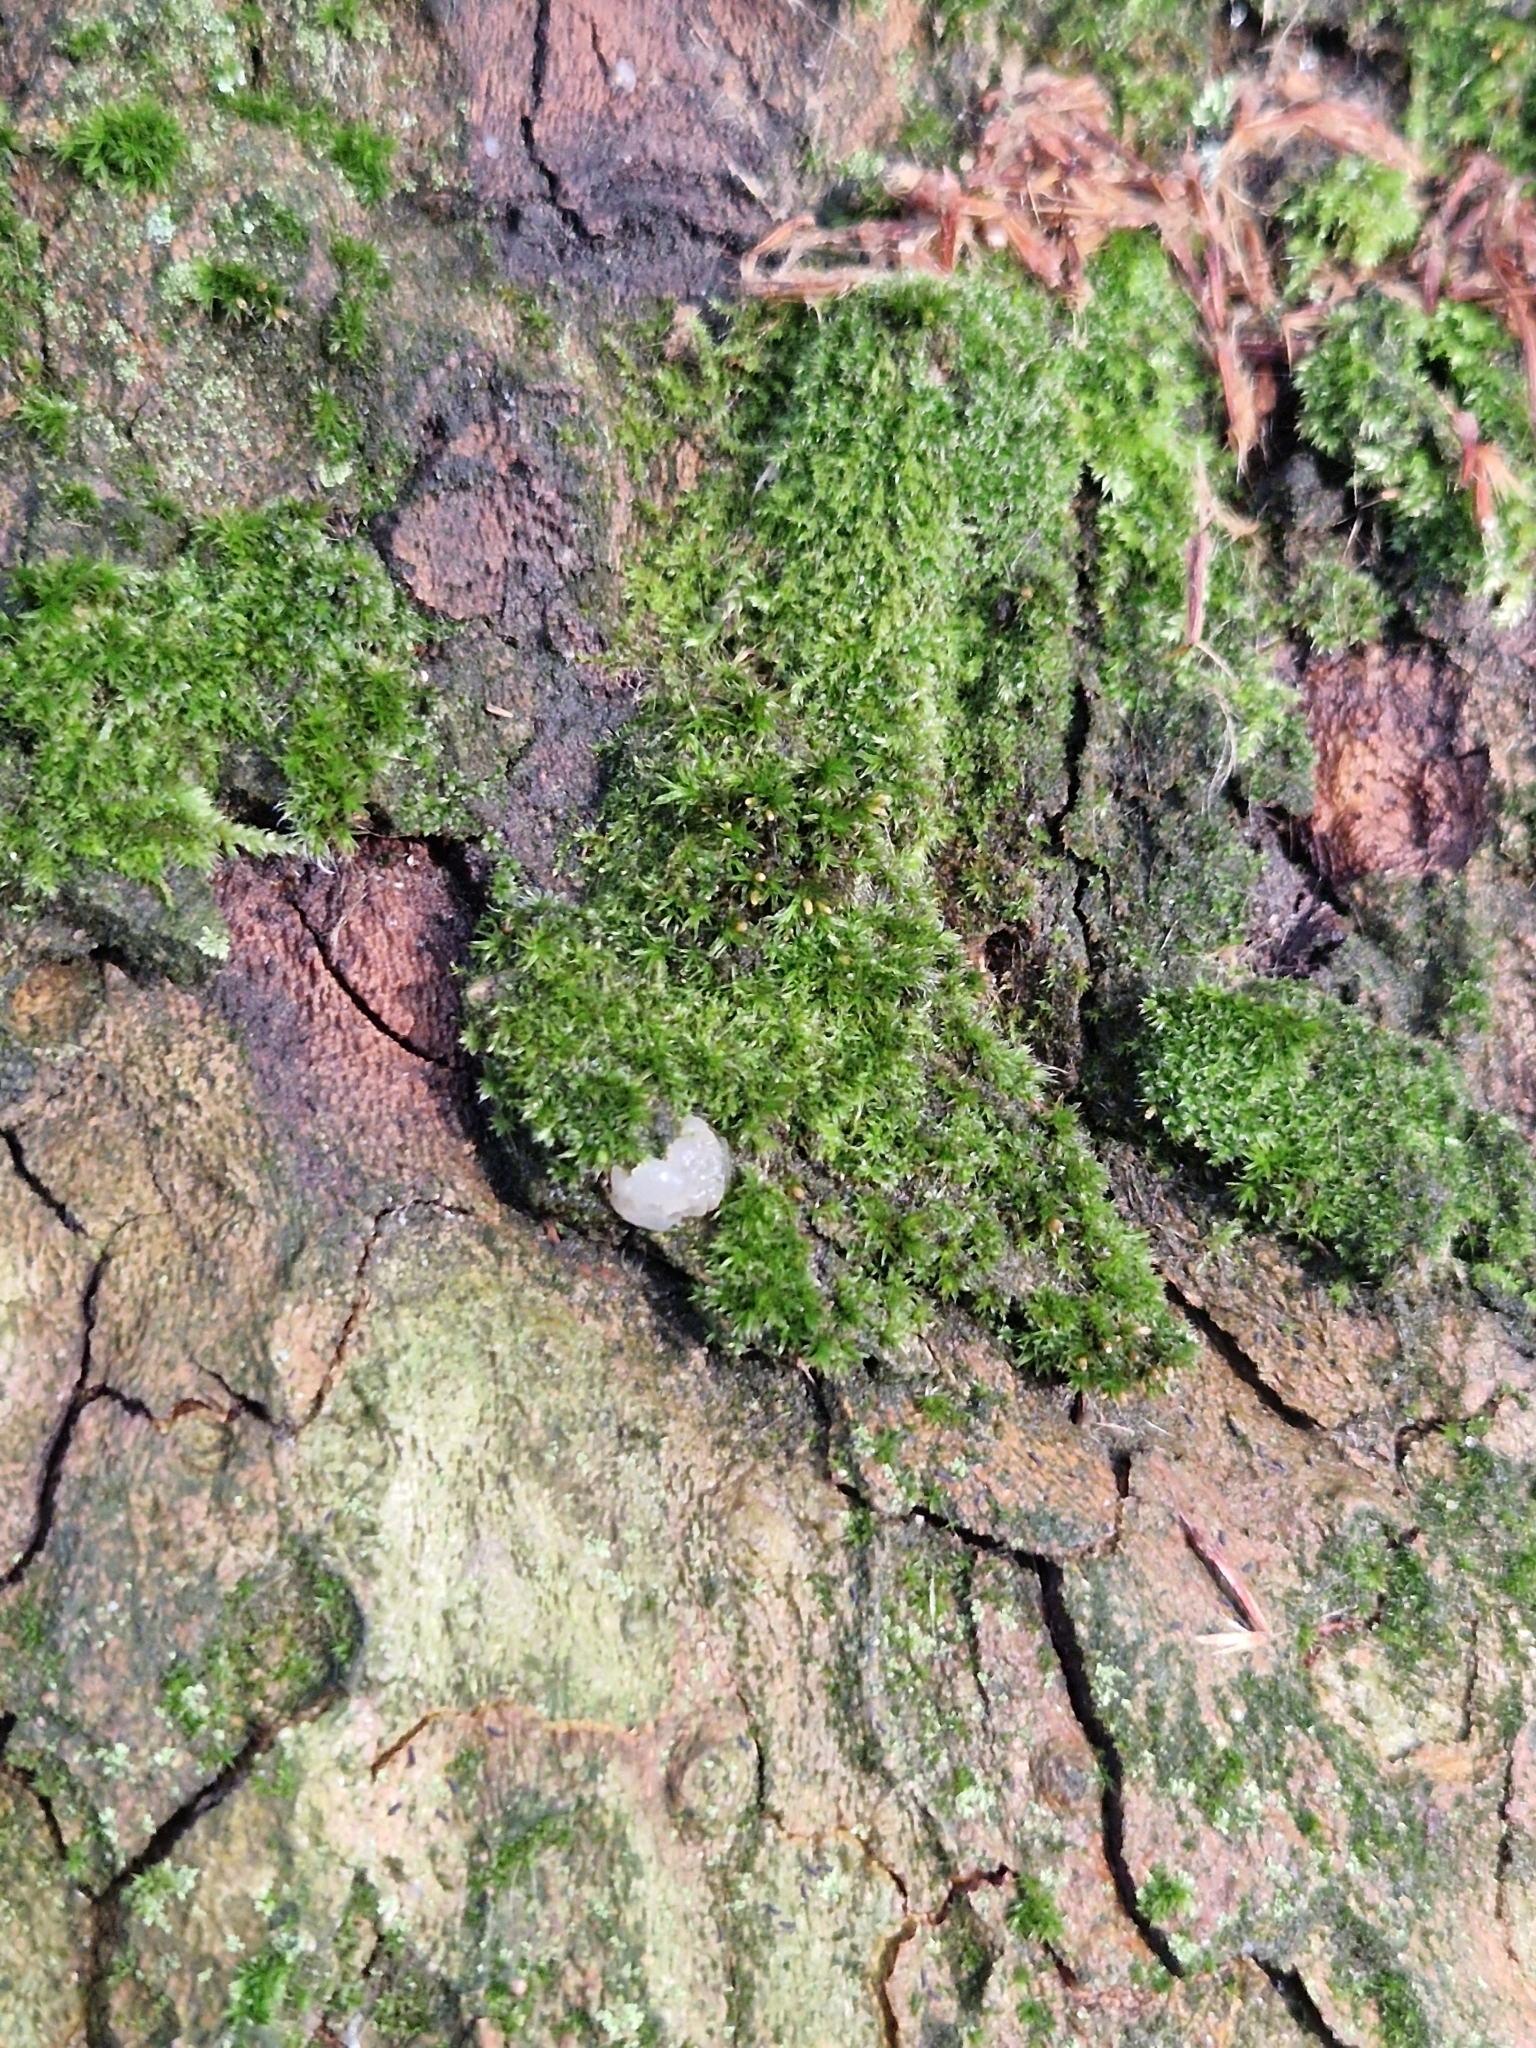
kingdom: Fungi
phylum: Basidiomycota
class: Agaricomycetes
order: Auriculariales
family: Hyaloriaceae
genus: Myxarium
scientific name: Myxarium nucleatum
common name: Crystal brain fungus
